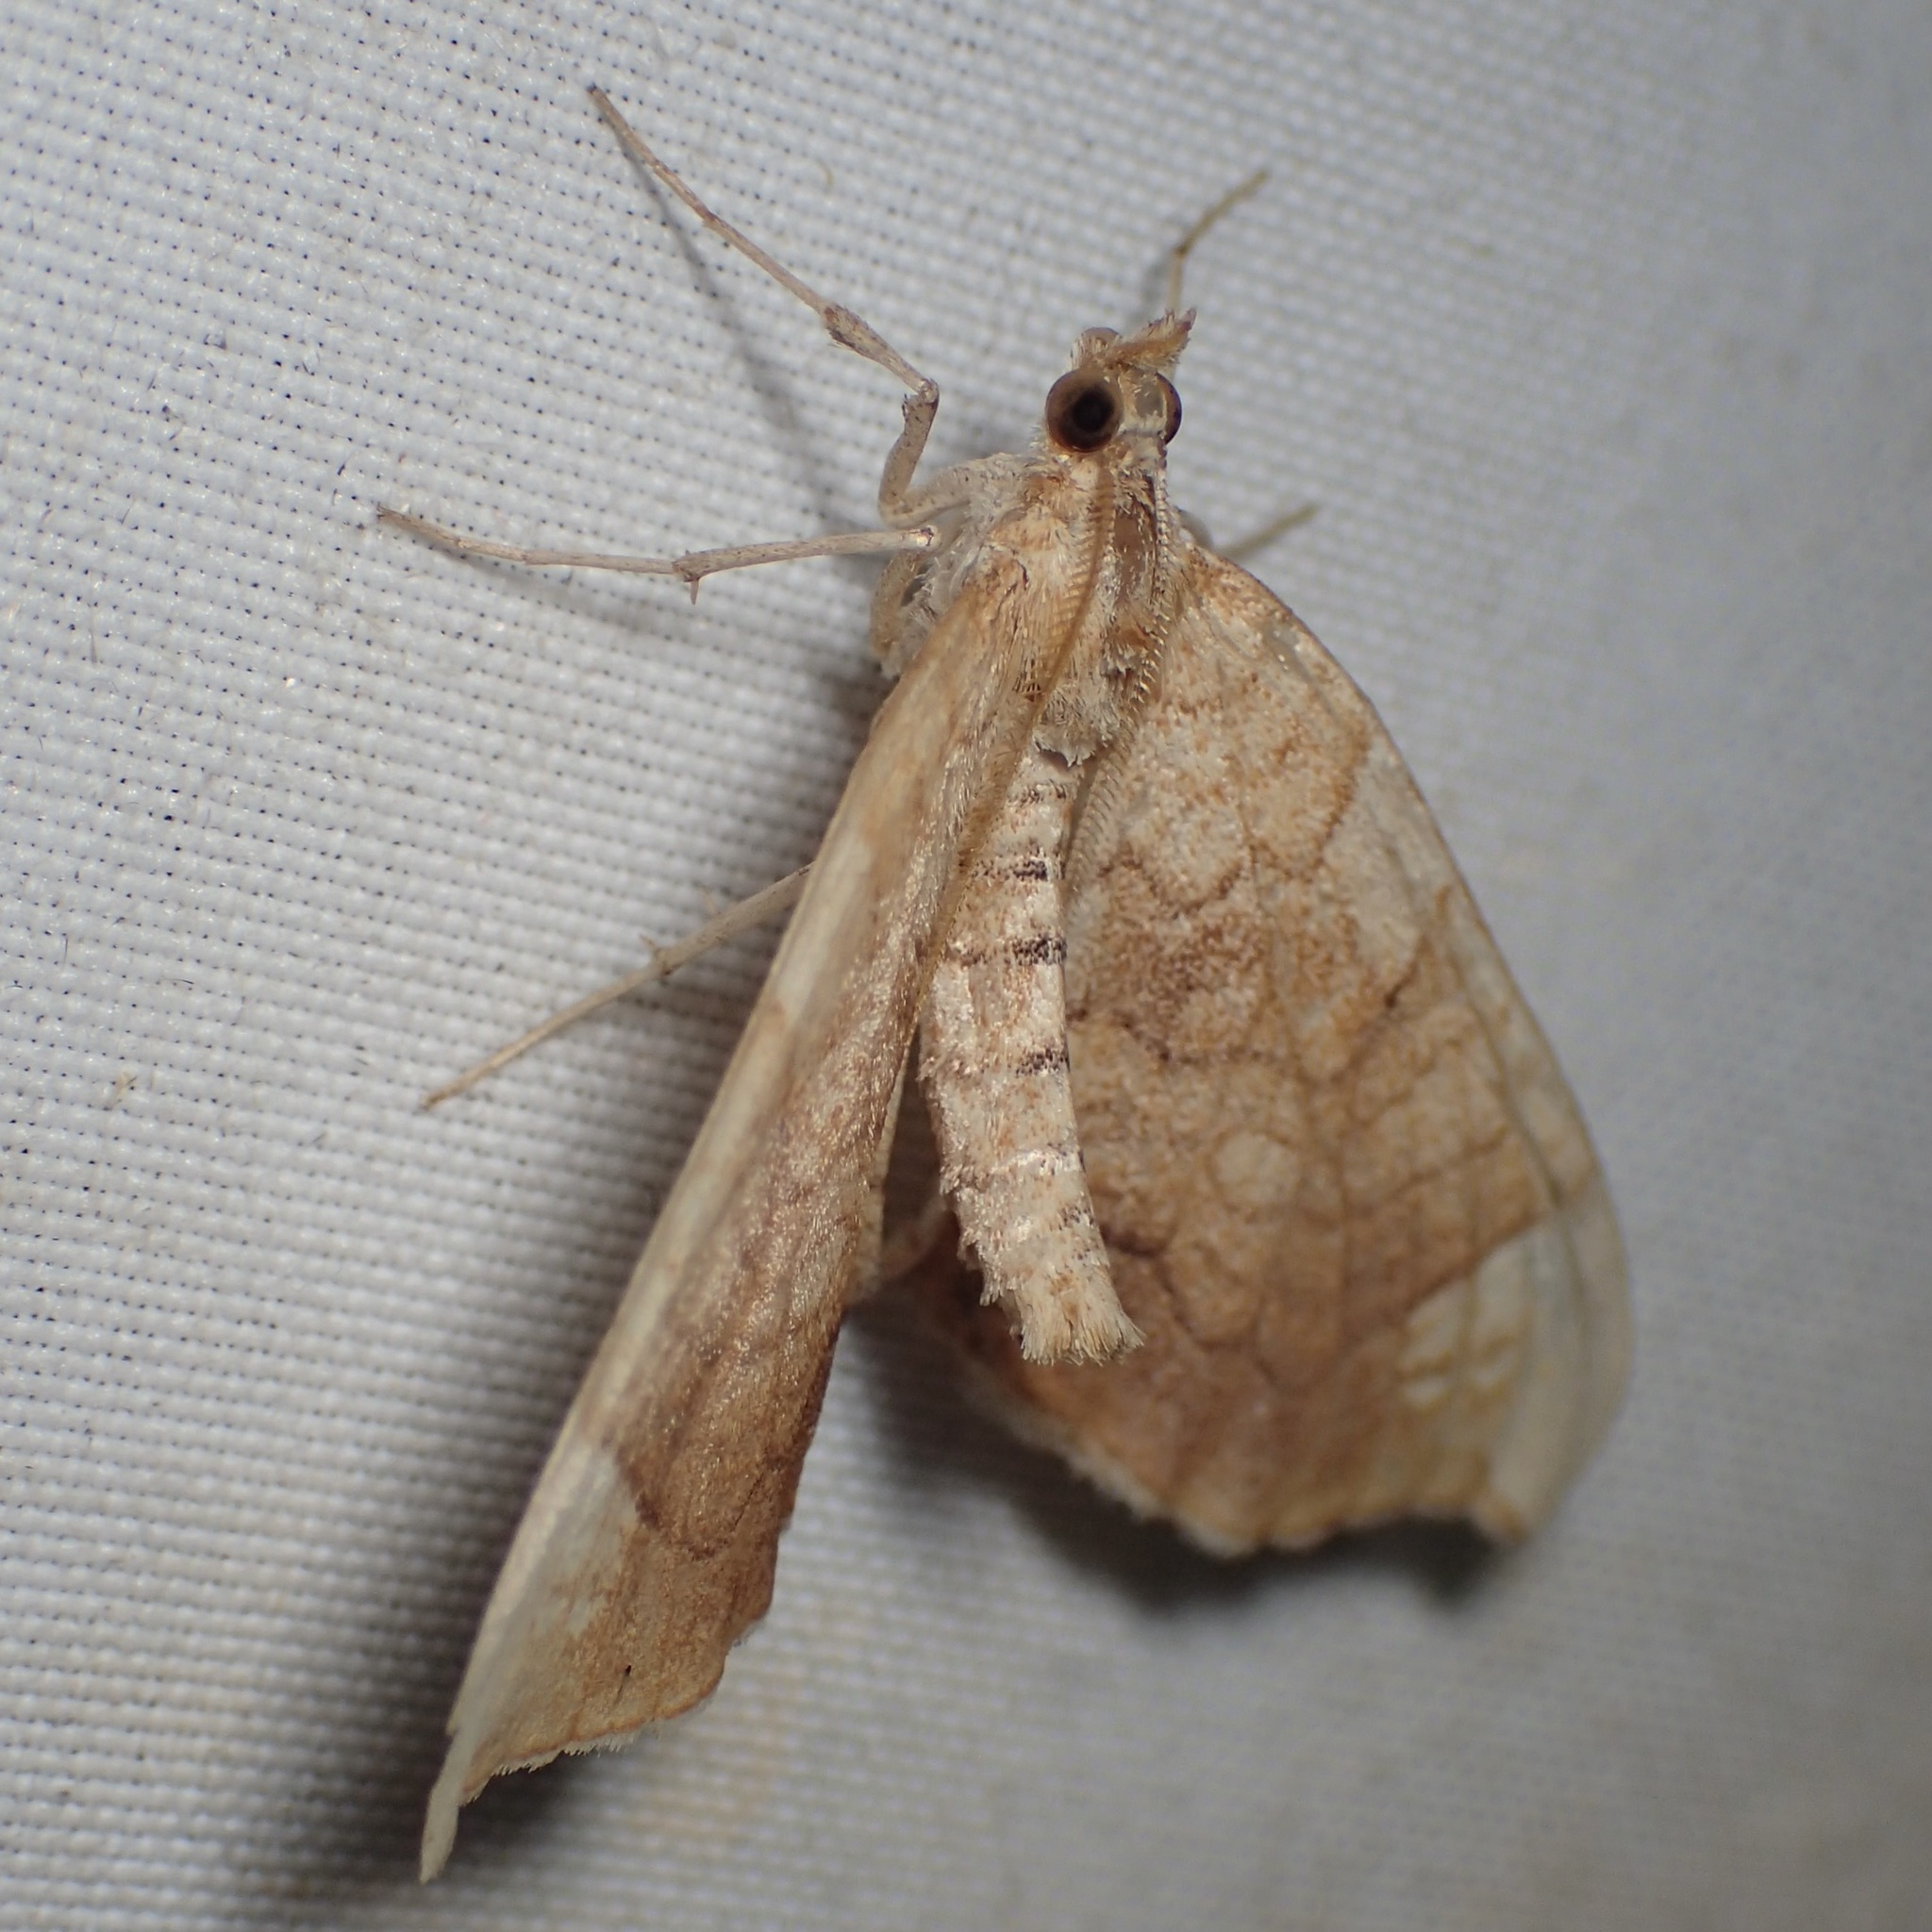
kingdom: Animalia
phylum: Arthropoda
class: Insecta
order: Lepidoptera
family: Geometridae
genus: Eulithis
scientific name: Eulithis luteolata
